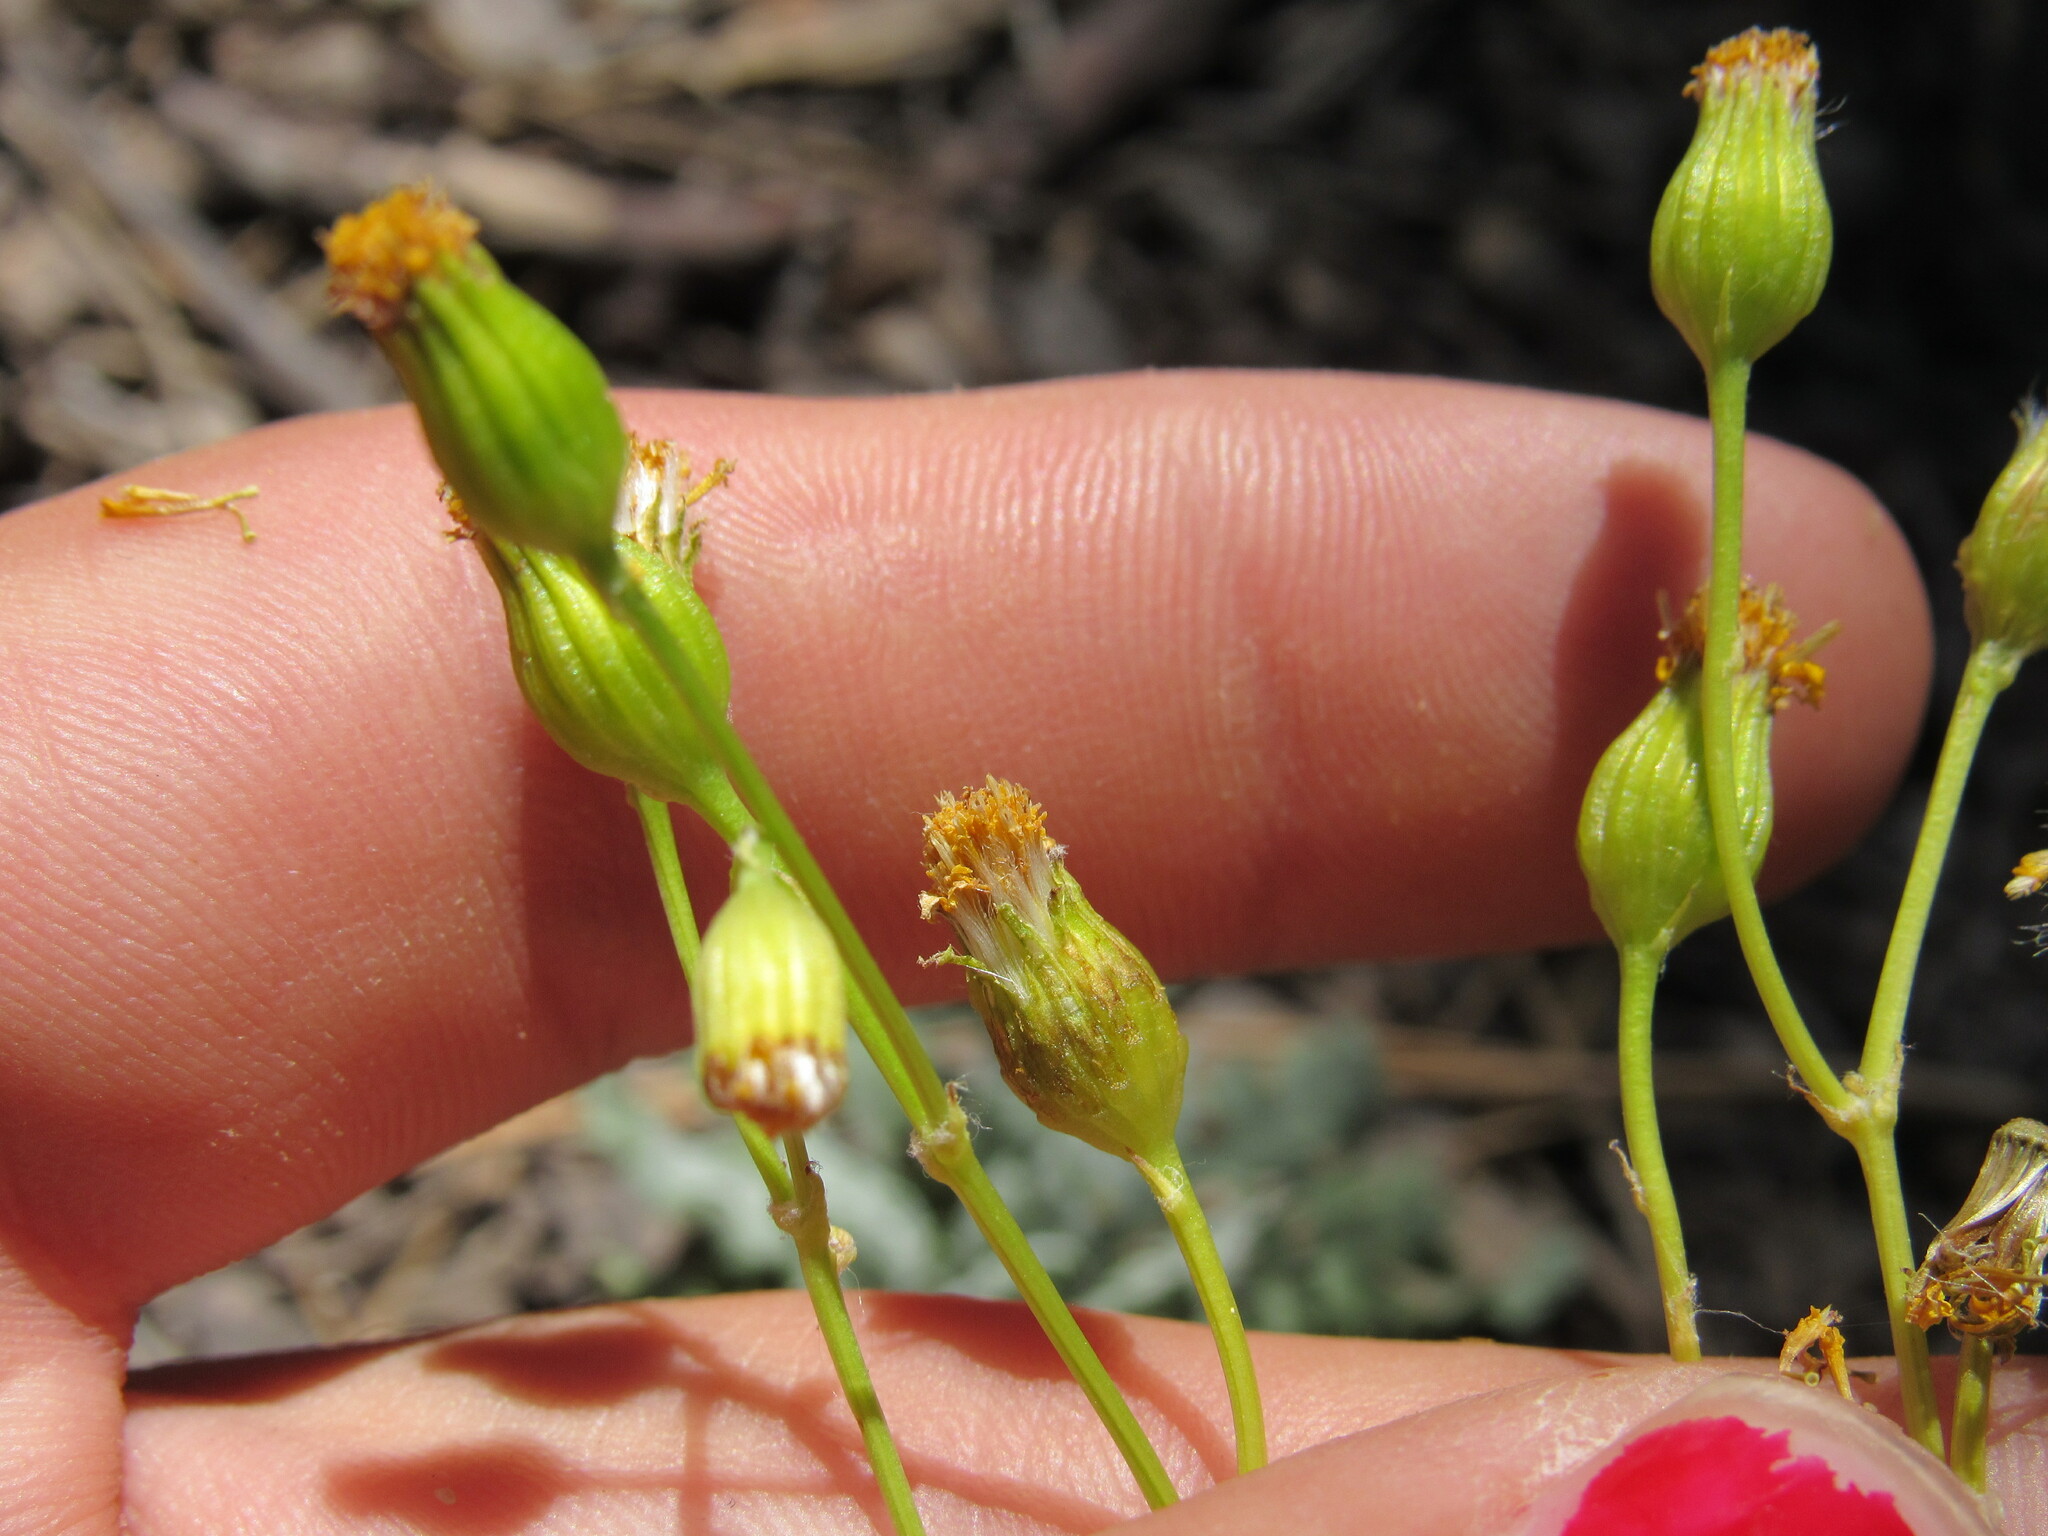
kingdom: Plantae
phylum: Tracheophyta
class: Magnoliopsida
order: Asterales
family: Asteraceae
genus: Packera
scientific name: Packera multilobata
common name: Lobe-leaf groundsel
